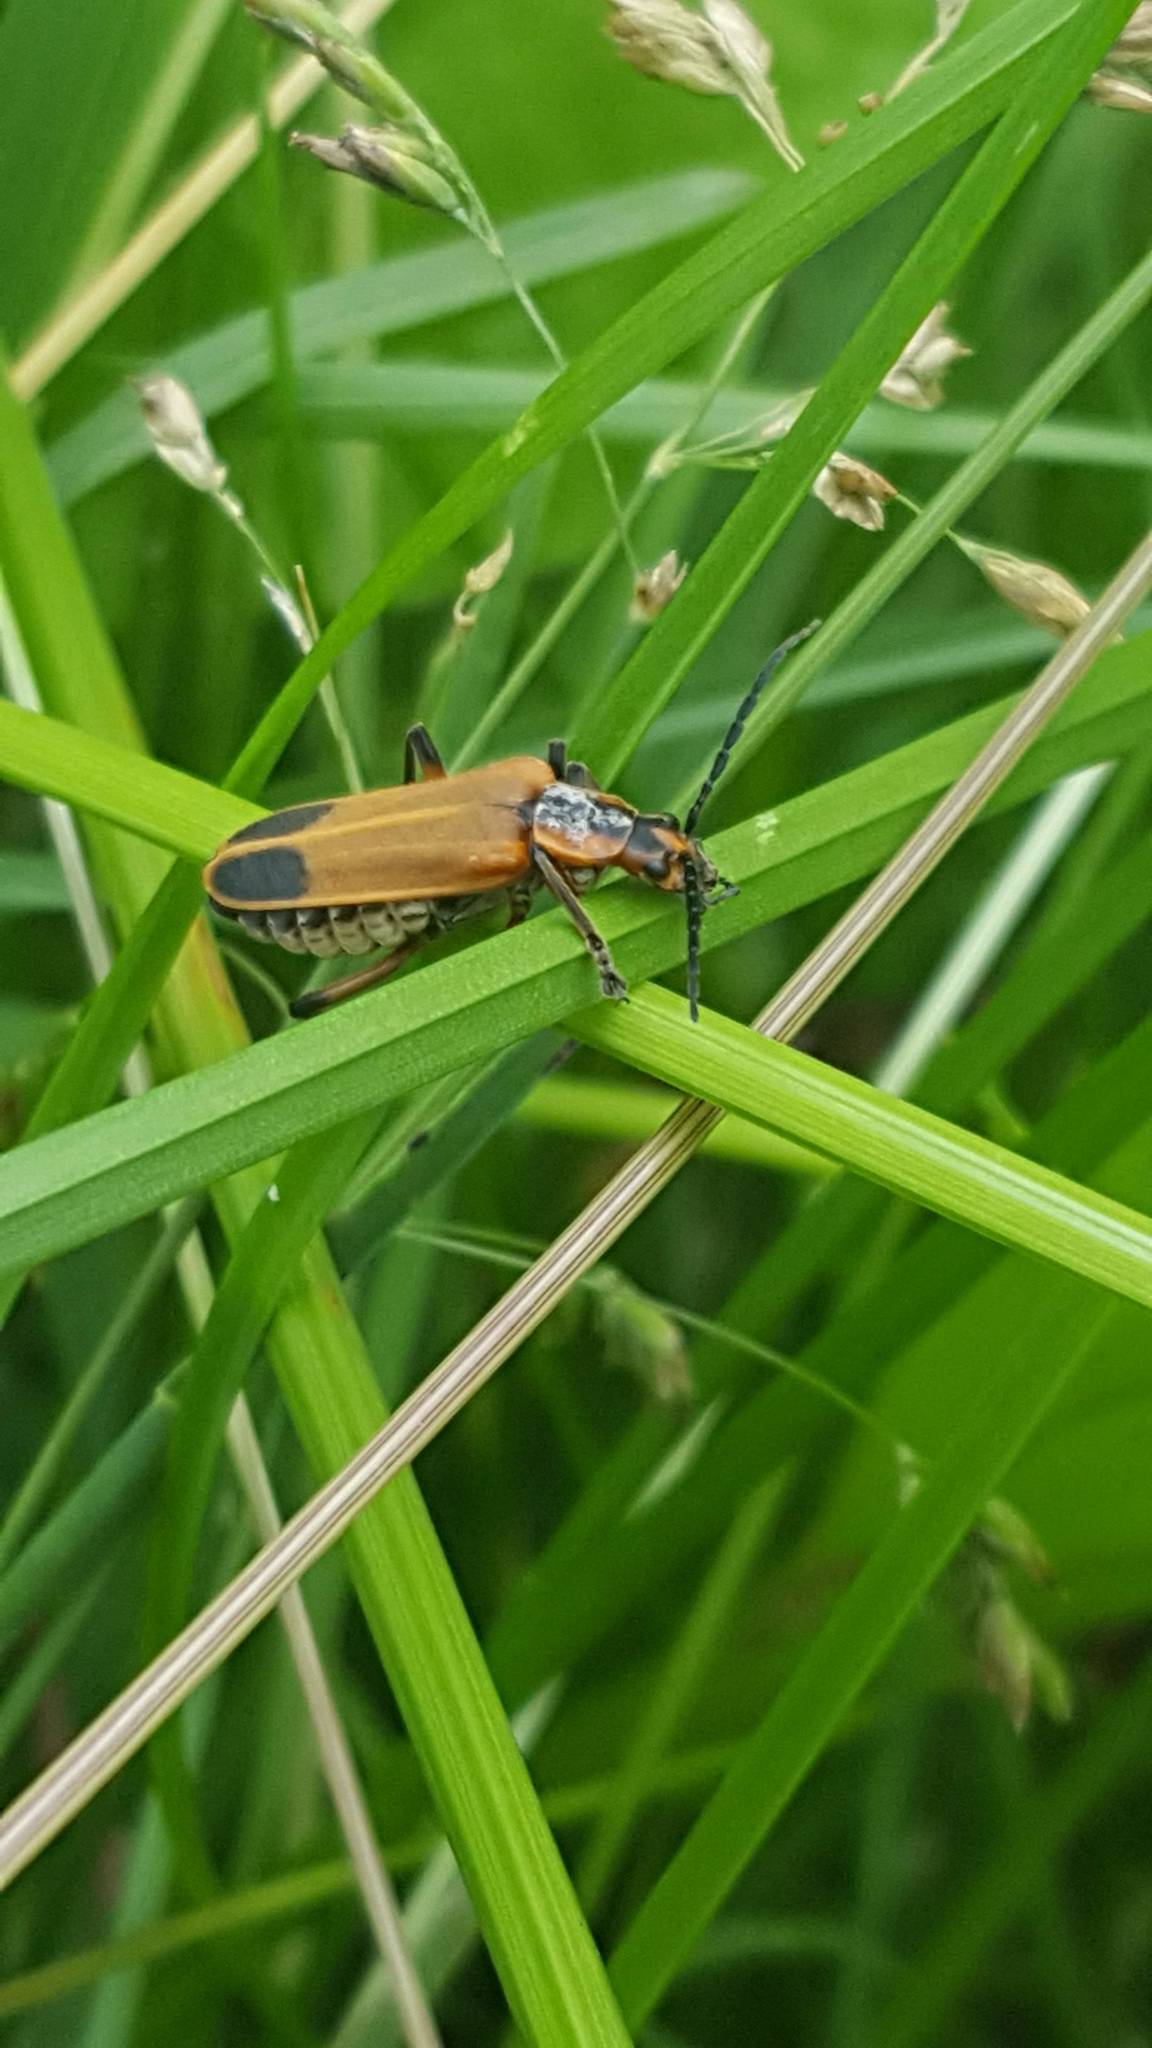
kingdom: Animalia
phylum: Arthropoda
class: Insecta
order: Coleoptera
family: Cantharidae
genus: Chauliognathus
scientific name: Chauliognathus marginatus
